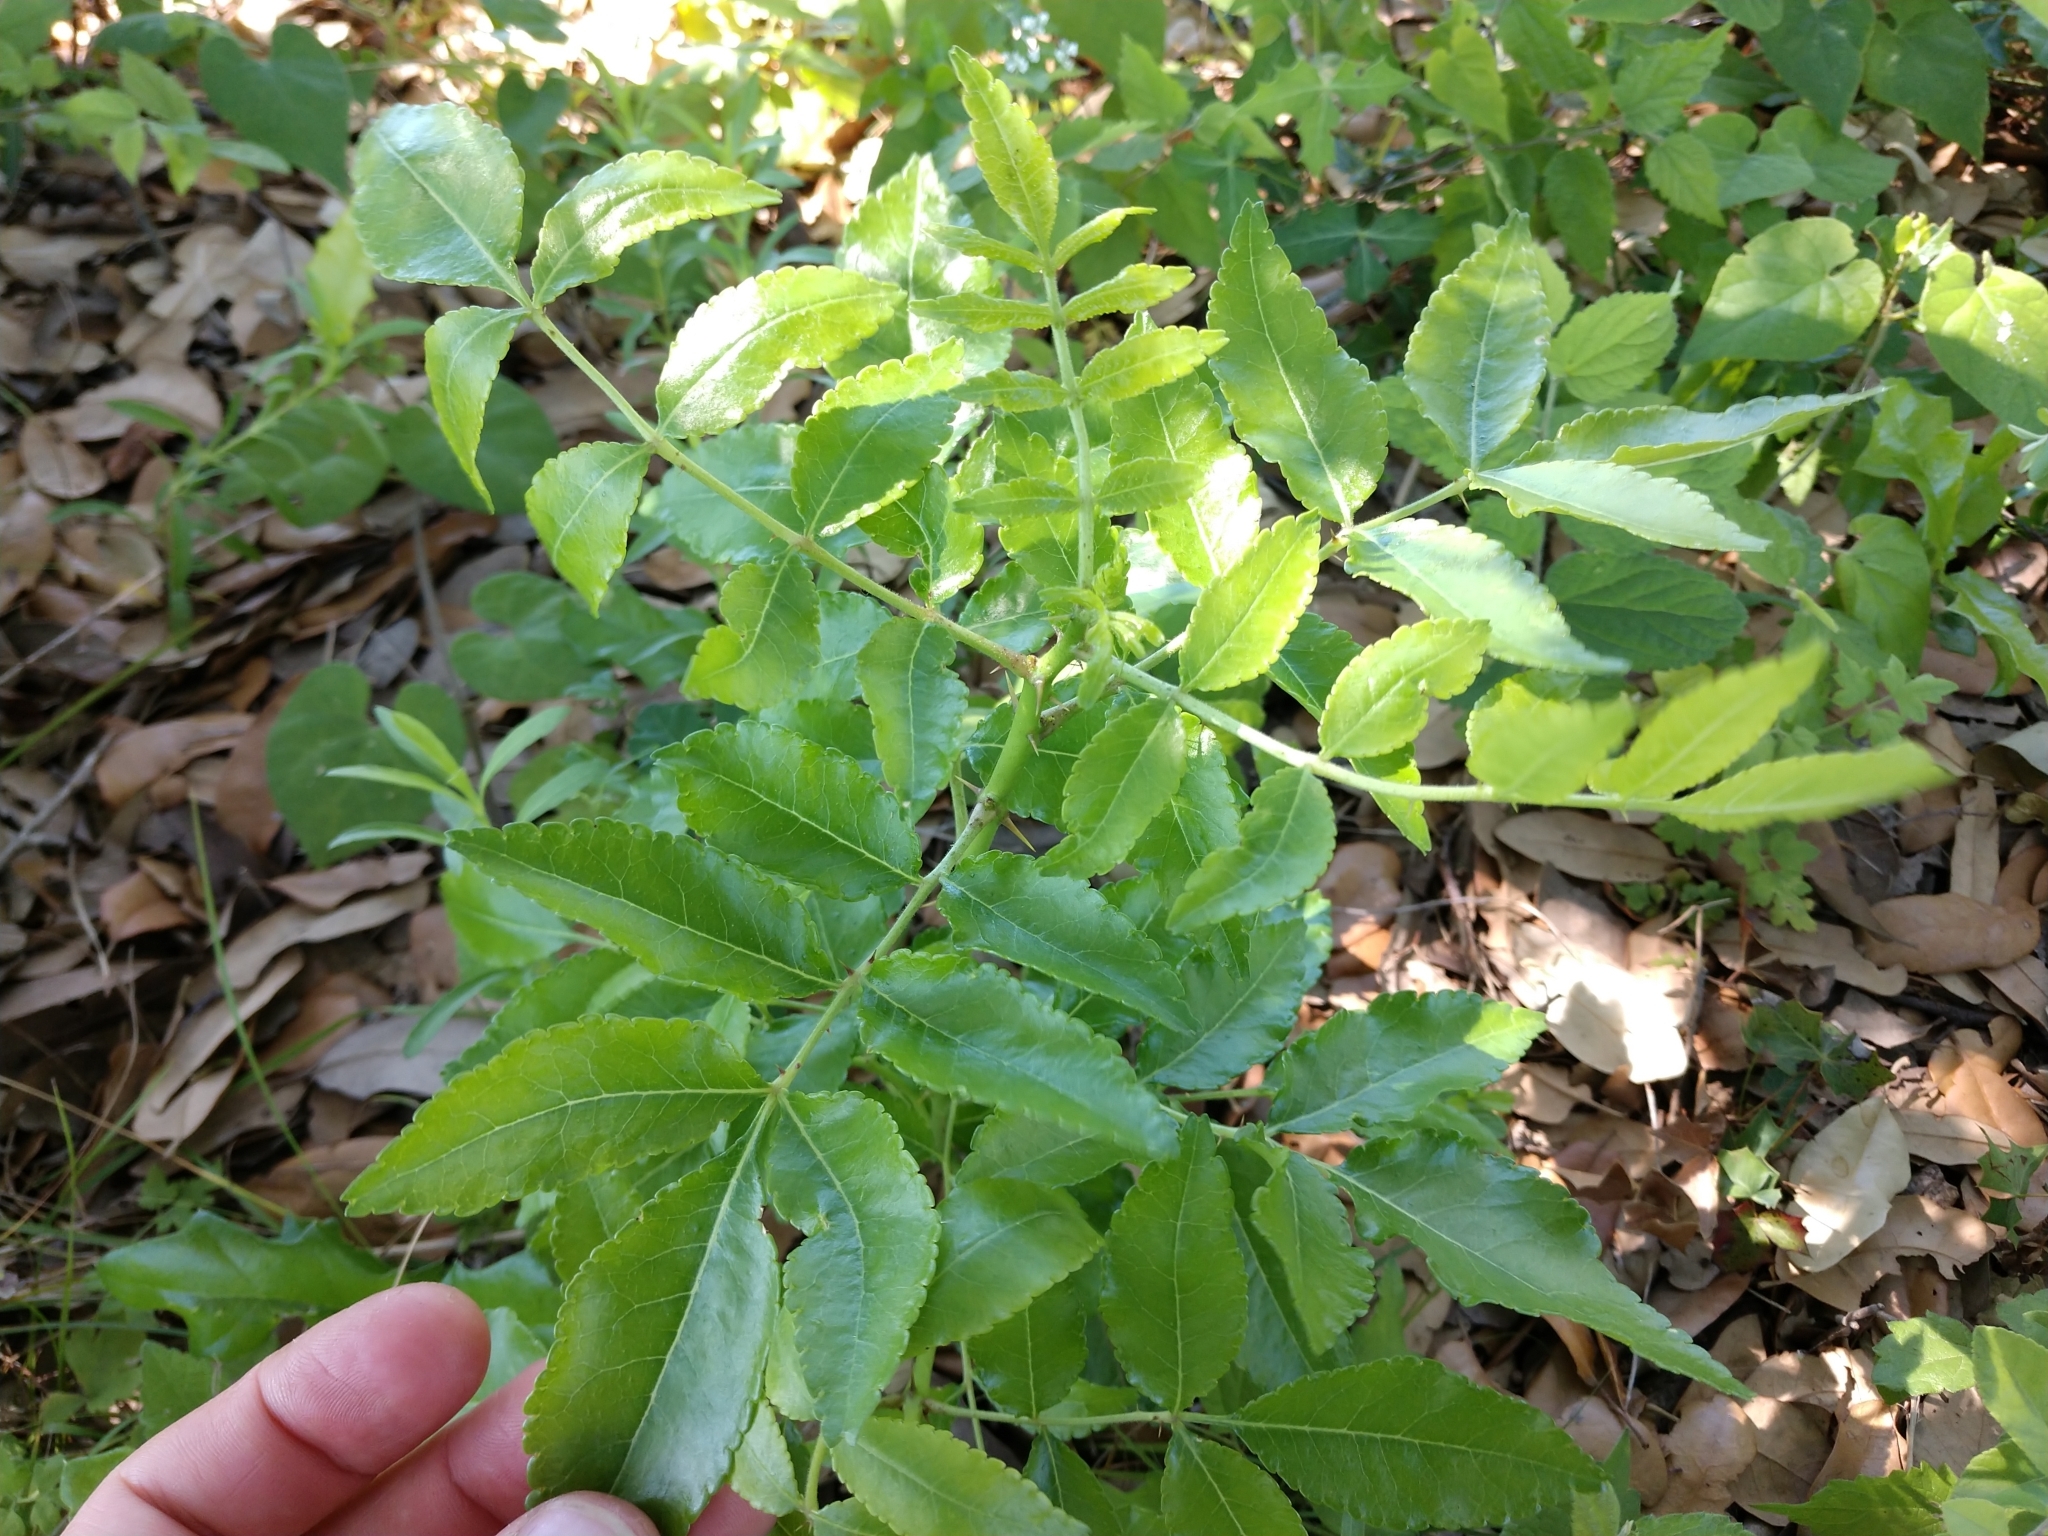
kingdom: Plantae
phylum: Tracheophyta
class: Magnoliopsida
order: Sapindales
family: Rutaceae
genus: Zanthoxylum
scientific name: Zanthoxylum clava-herculis
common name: Hercules'-club
